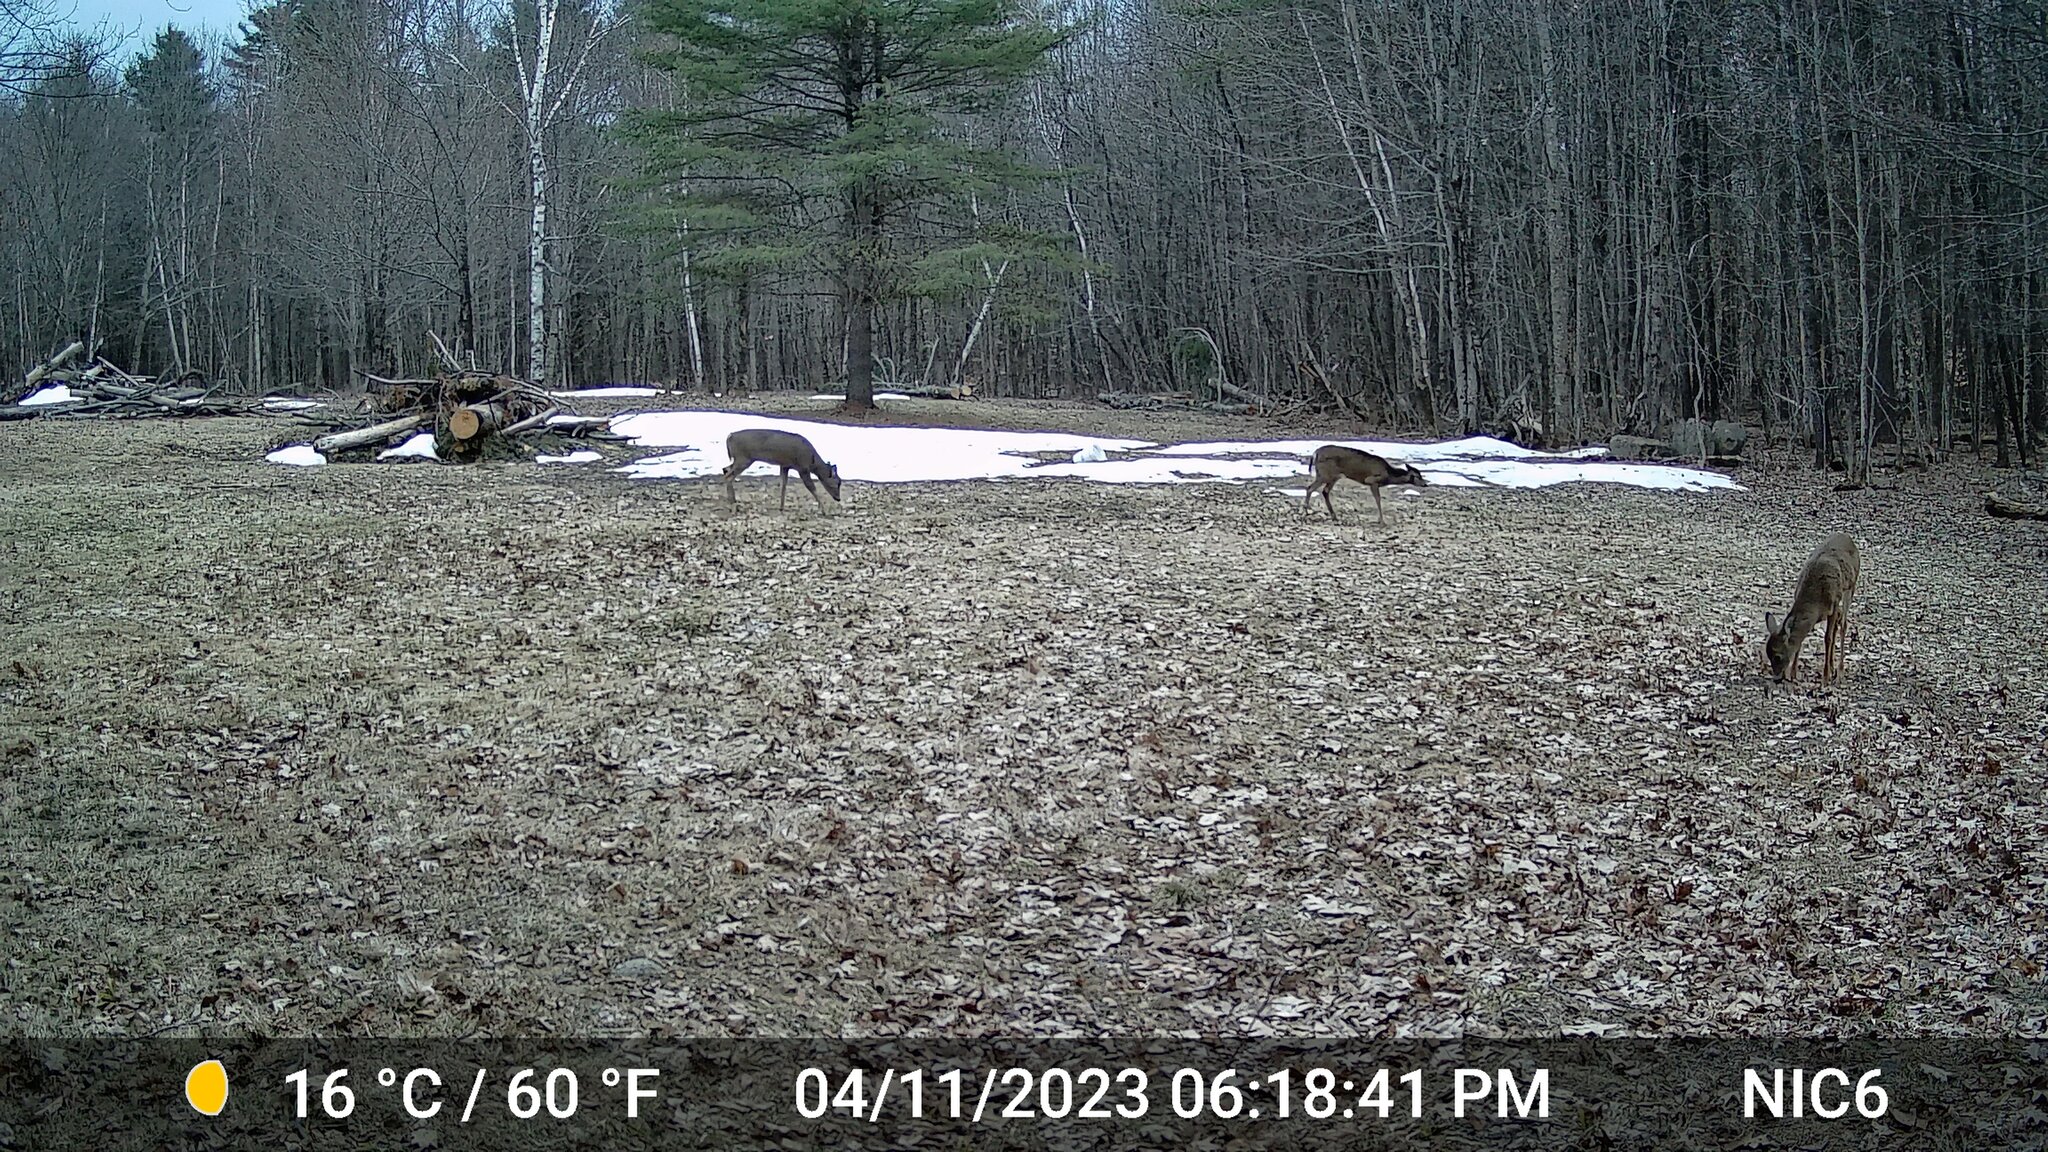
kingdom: Animalia
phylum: Chordata
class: Mammalia
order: Artiodactyla
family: Cervidae
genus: Odocoileus
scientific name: Odocoileus virginianus
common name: White-tailed deer
